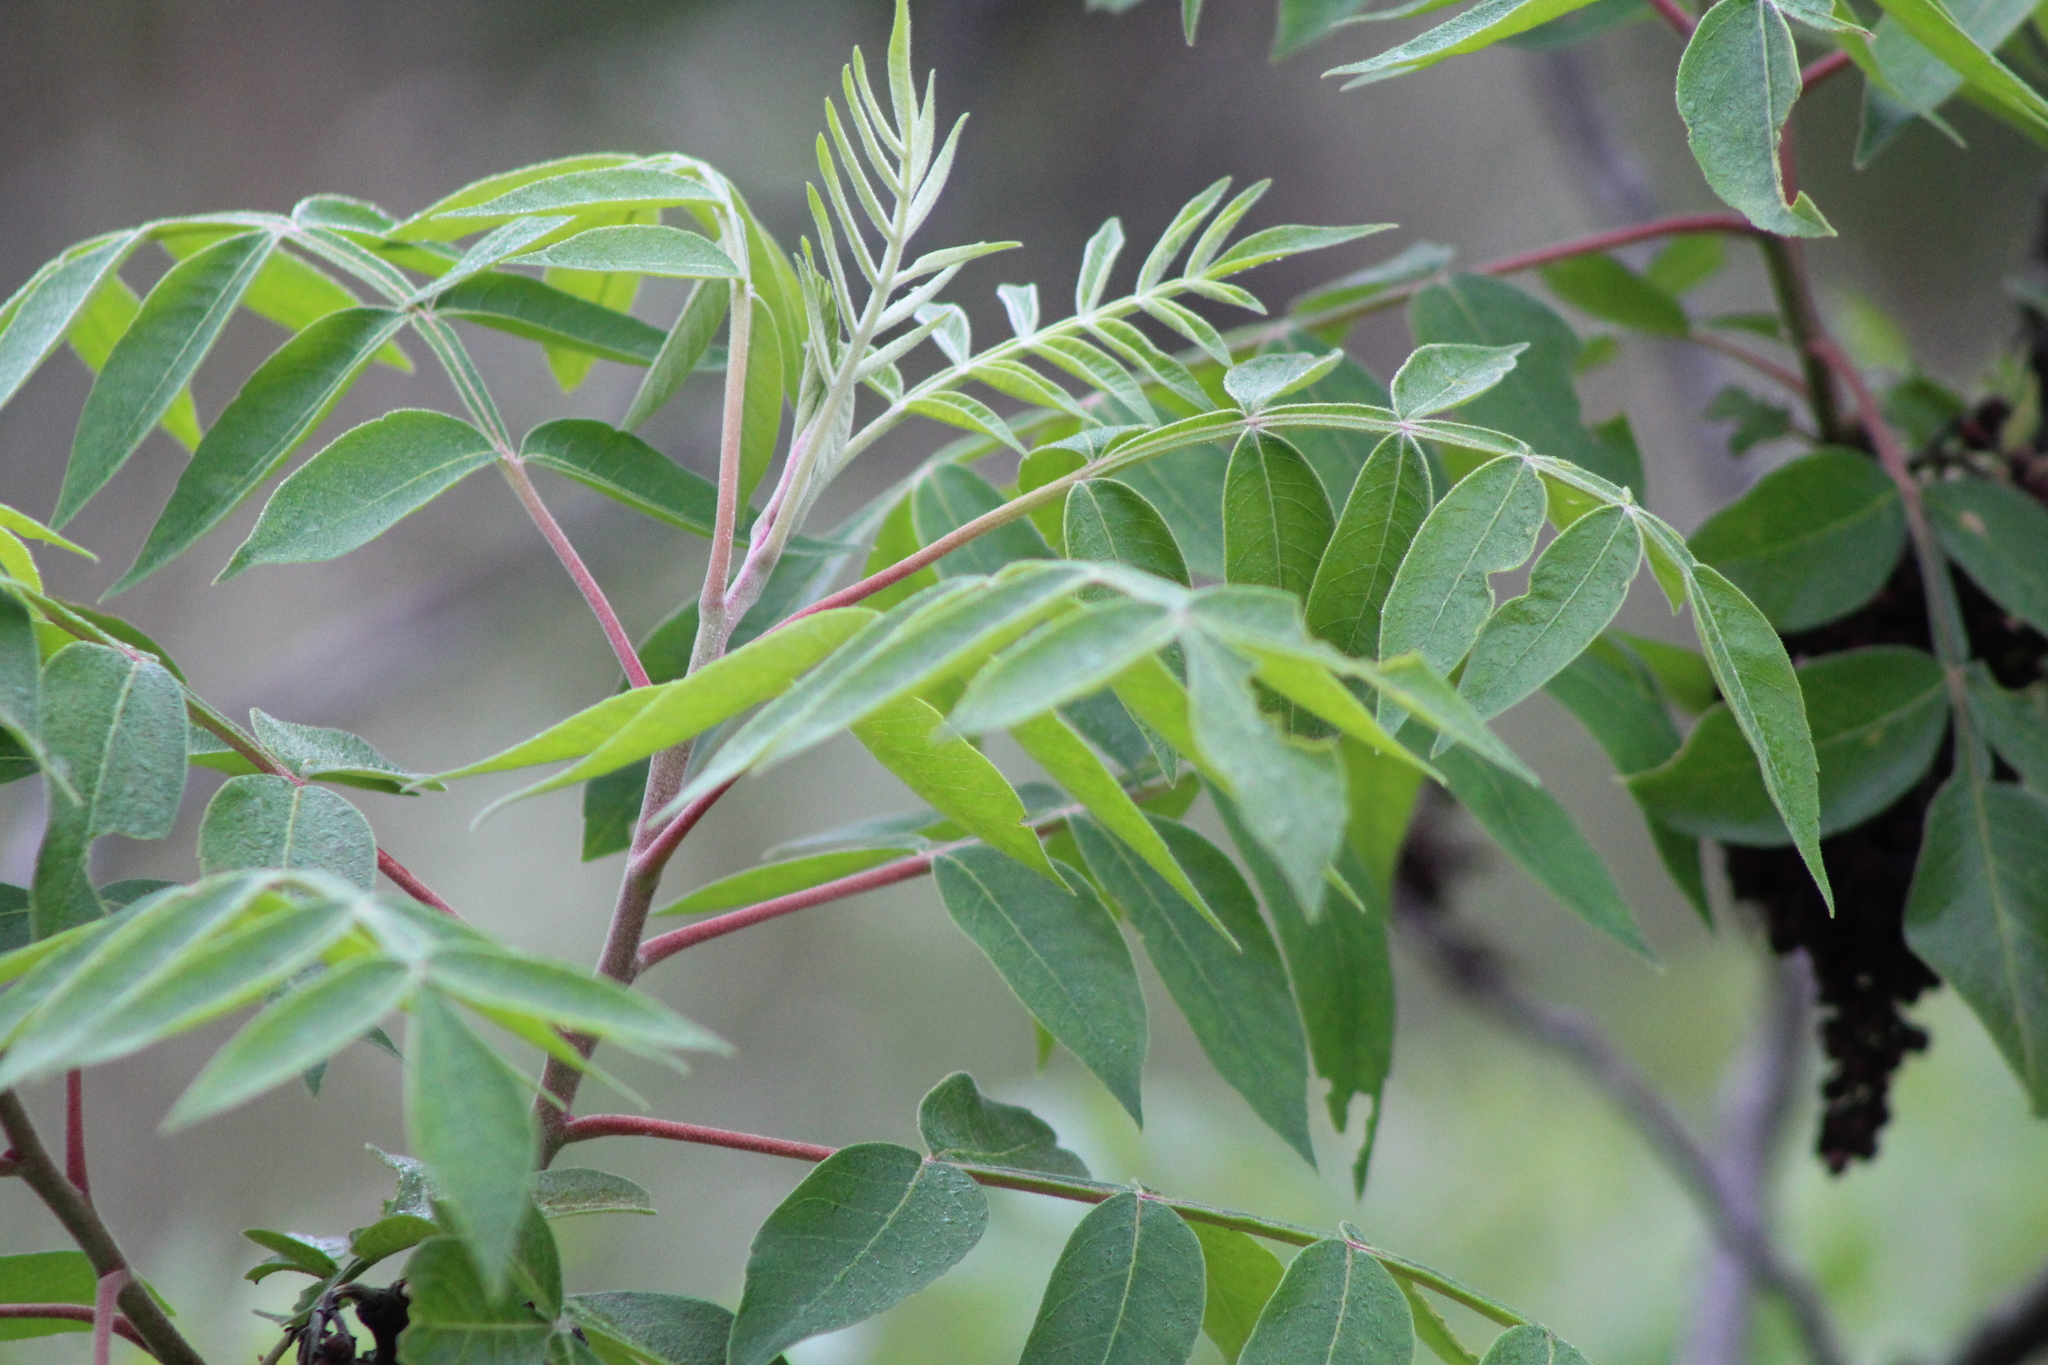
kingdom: Plantae
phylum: Tracheophyta
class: Magnoliopsida
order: Sapindales
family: Anacardiaceae
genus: Rhus
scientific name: Rhus lanceolata
